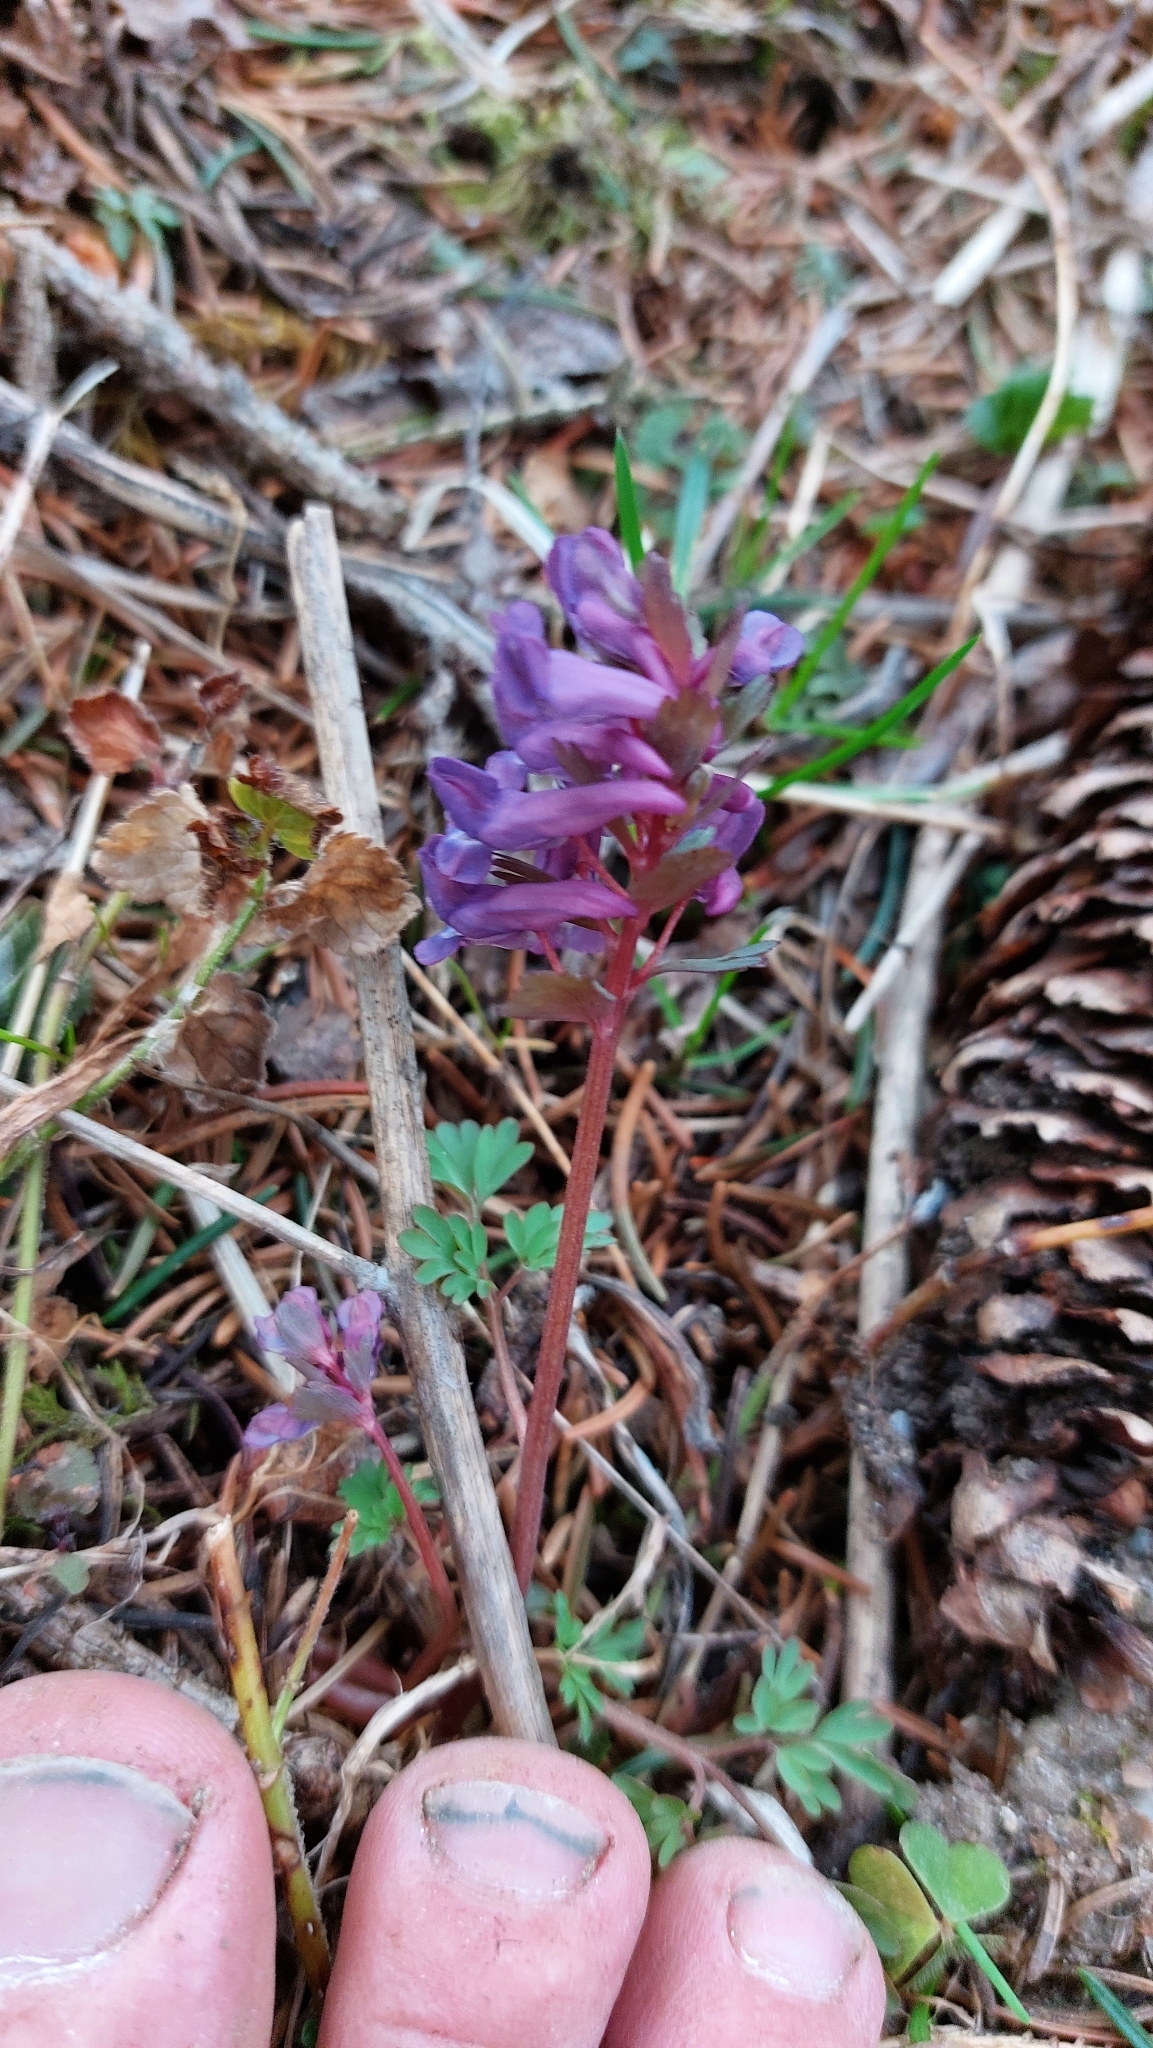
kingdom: Plantae
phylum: Tracheophyta
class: Magnoliopsida
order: Ranunculales
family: Papaveraceae
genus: Corydalis
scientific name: Corydalis solida
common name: Bird-in-a-bush
